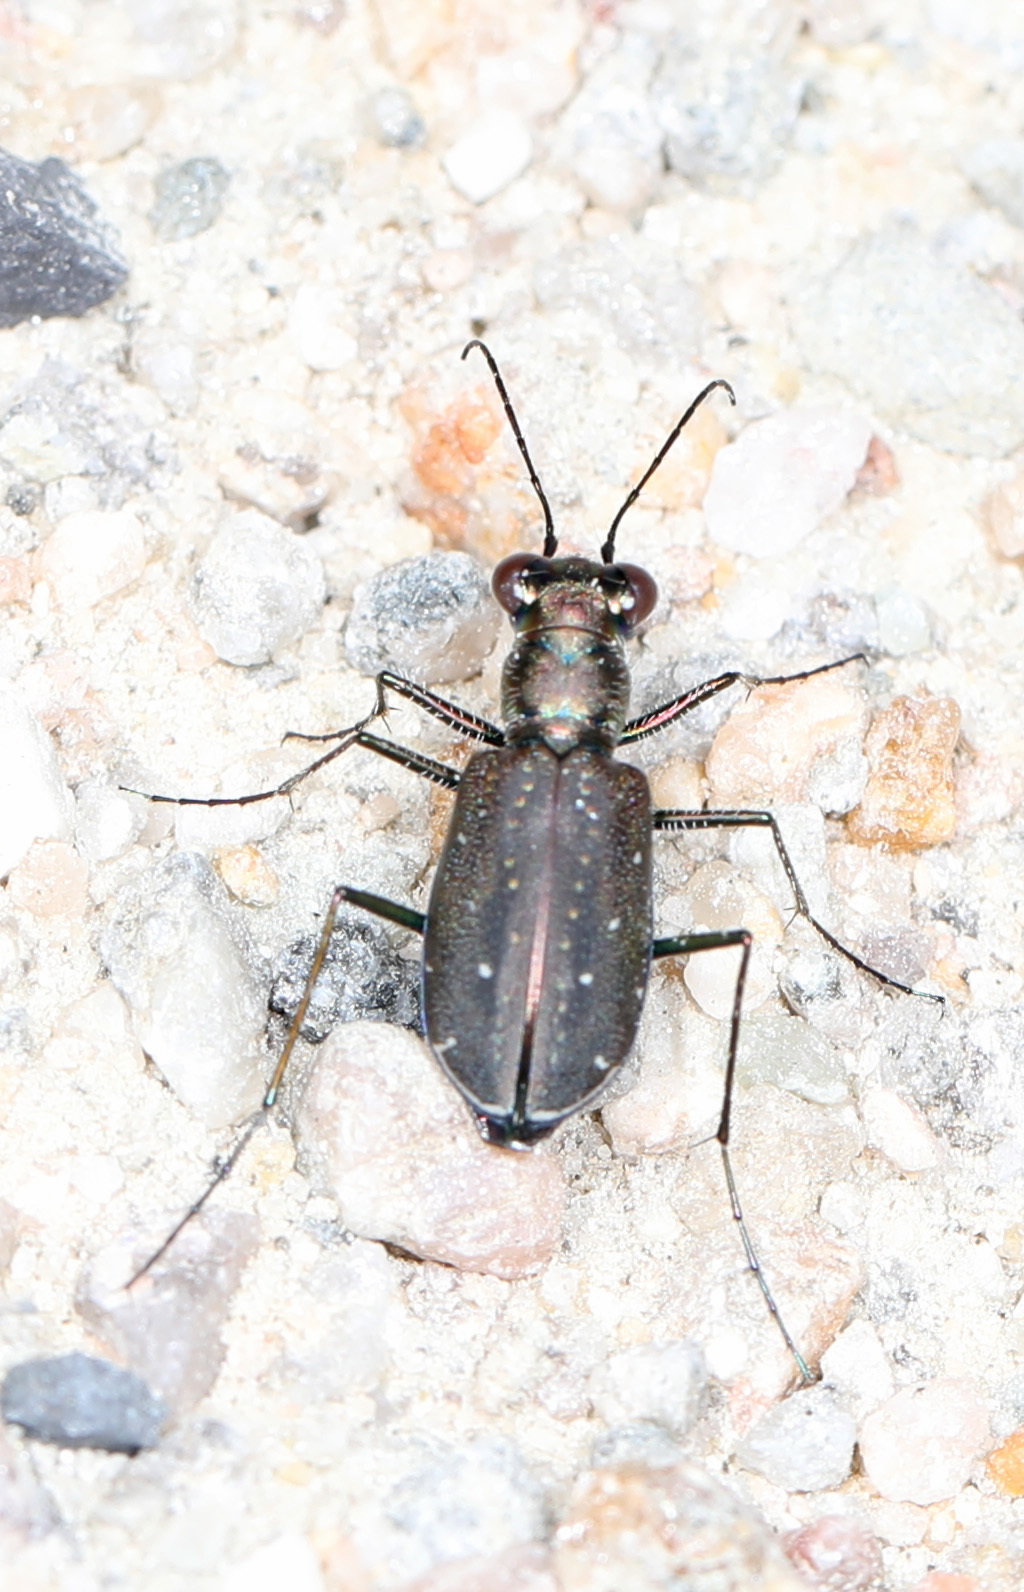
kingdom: Animalia
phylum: Arthropoda
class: Insecta
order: Coleoptera
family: Carabidae
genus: Cicindela
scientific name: Cicindela punctulata
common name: Punctured tiger beetle
